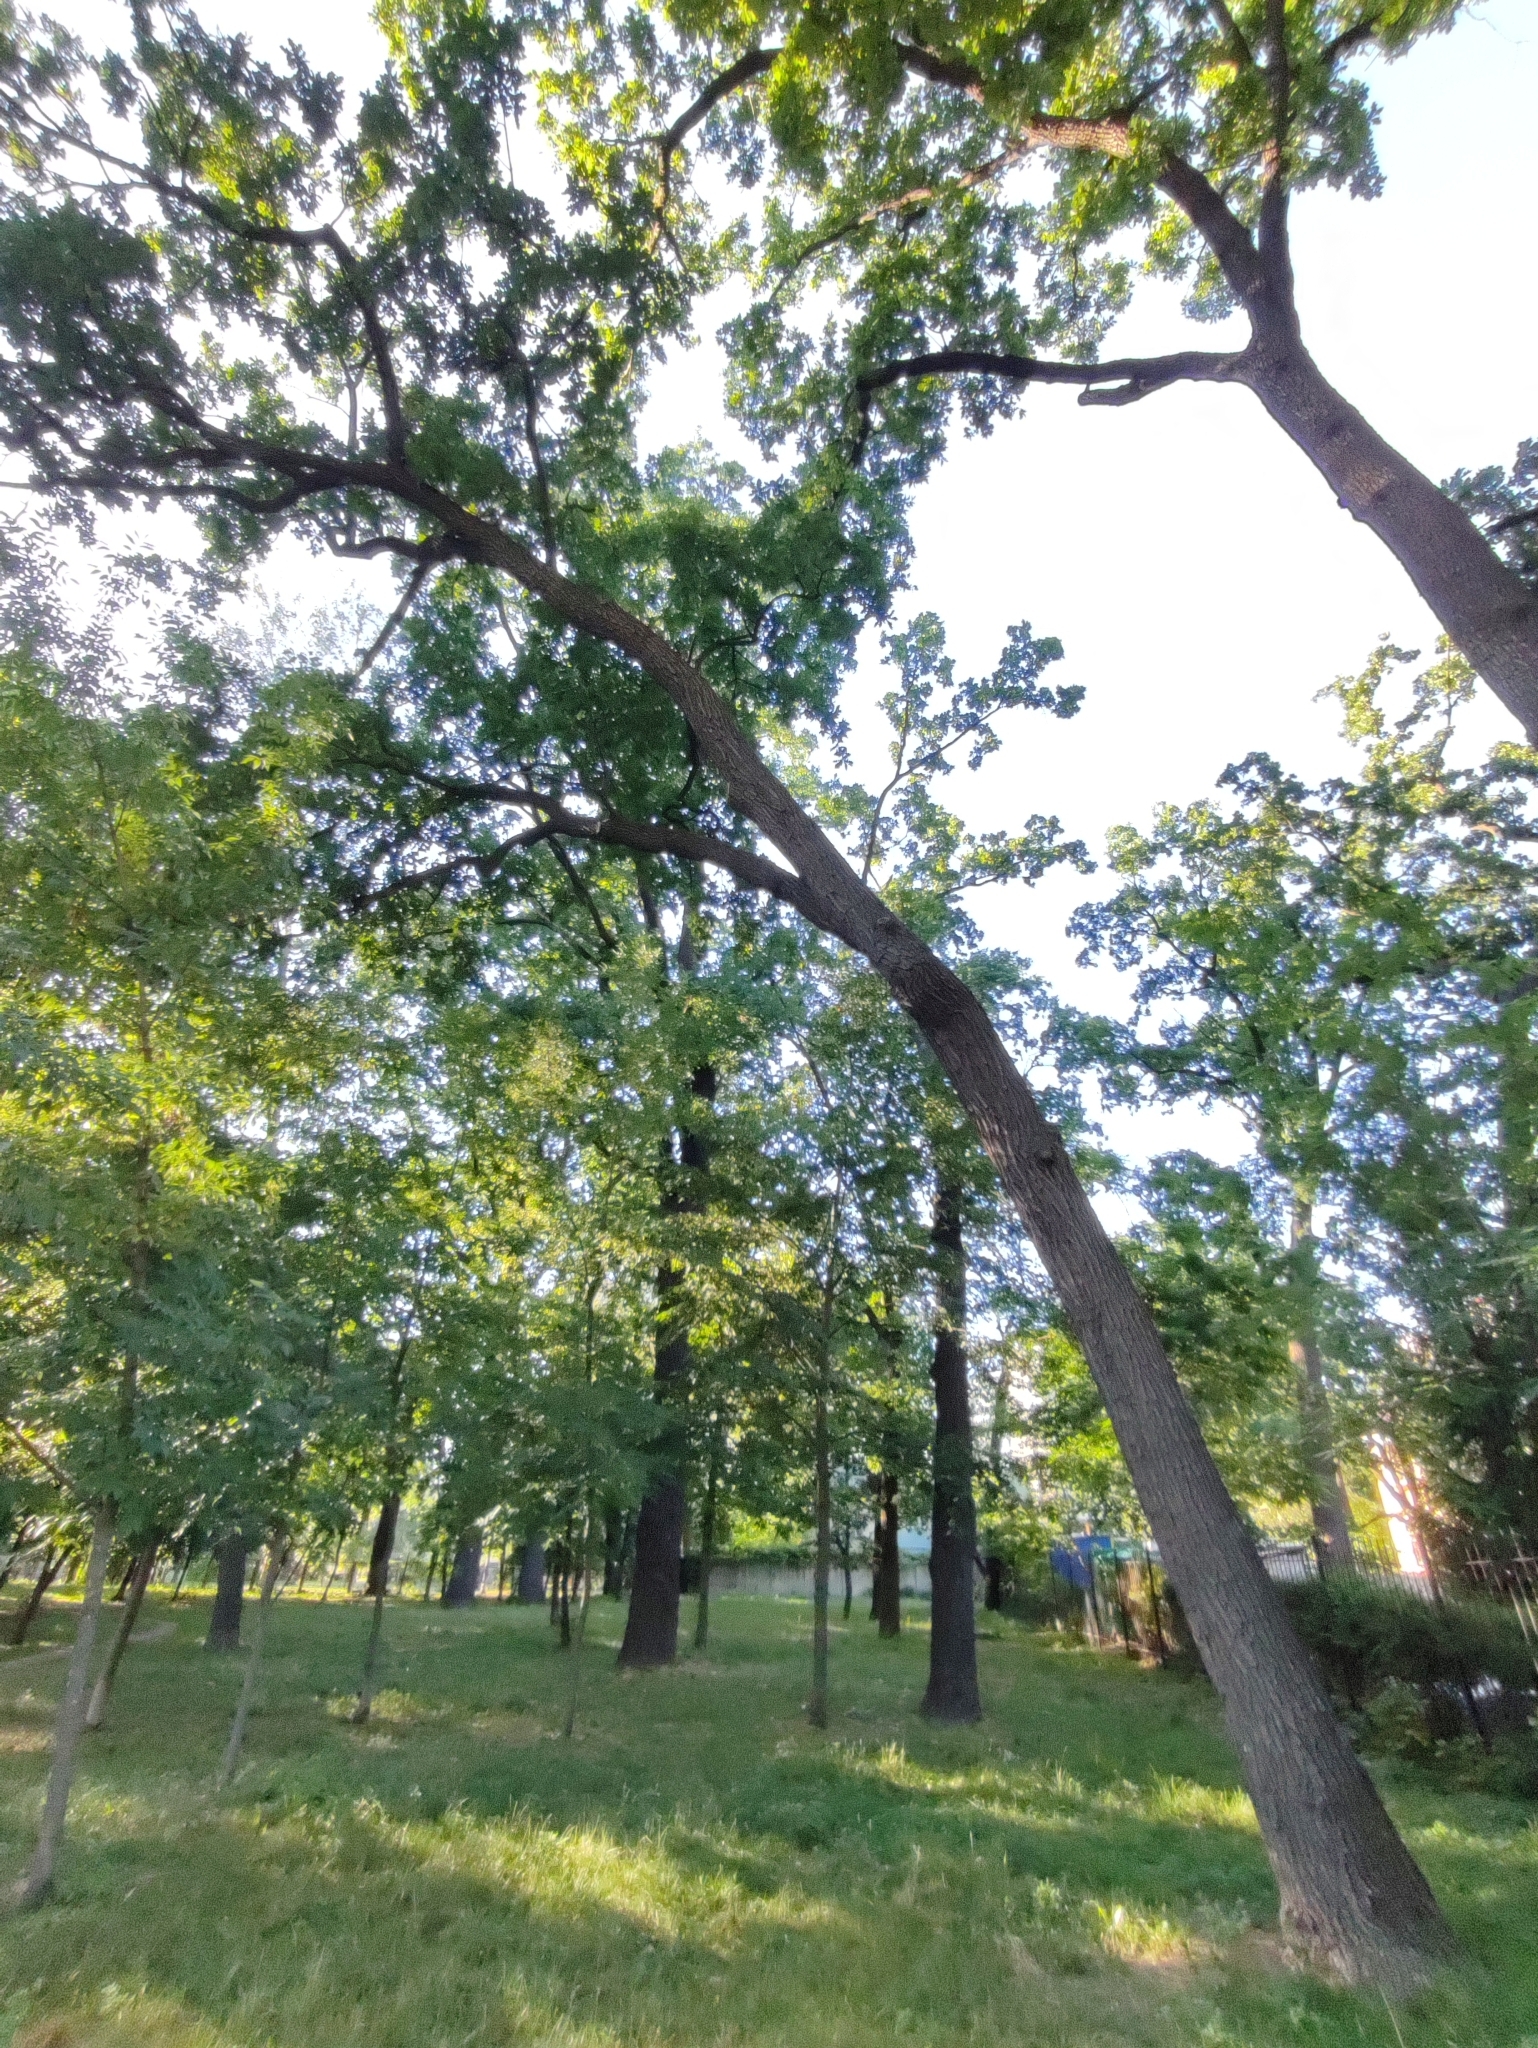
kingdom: Plantae
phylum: Tracheophyta
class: Magnoliopsida
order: Fagales
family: Fagaceae
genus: Quercus
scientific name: Quercus robur
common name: Pedunculate oak
